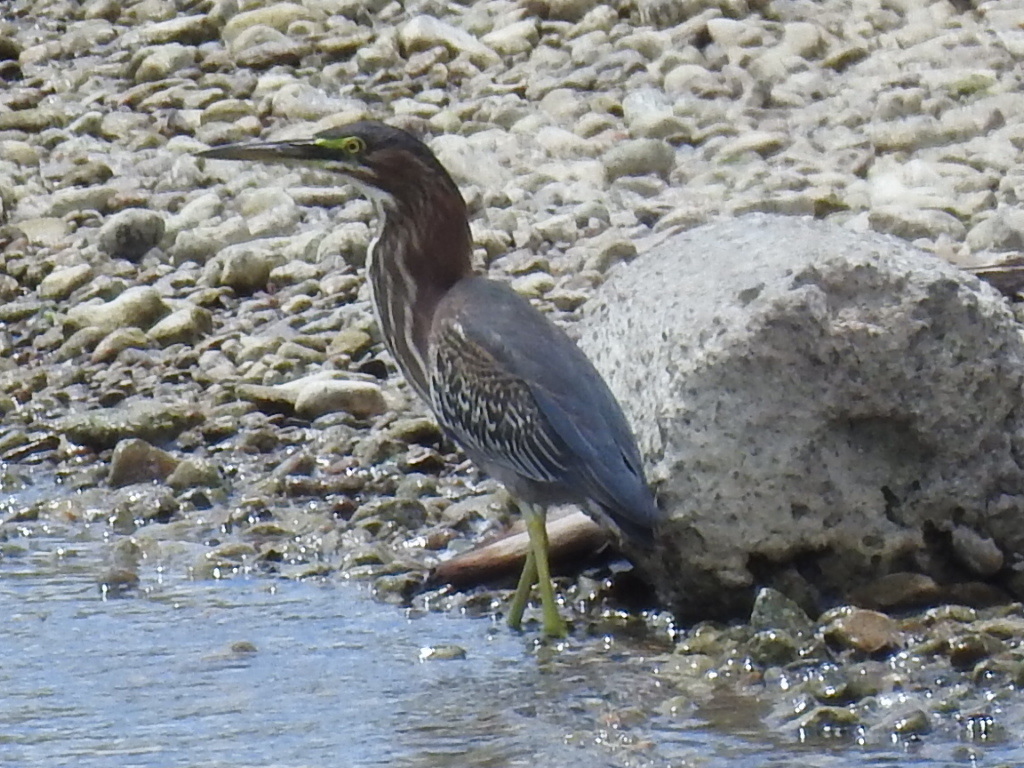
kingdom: Animalia
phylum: Chordata
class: Aves
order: Pelecaniformes
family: Ardeidae
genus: Butorides
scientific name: Butorides virescens
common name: Green heron
